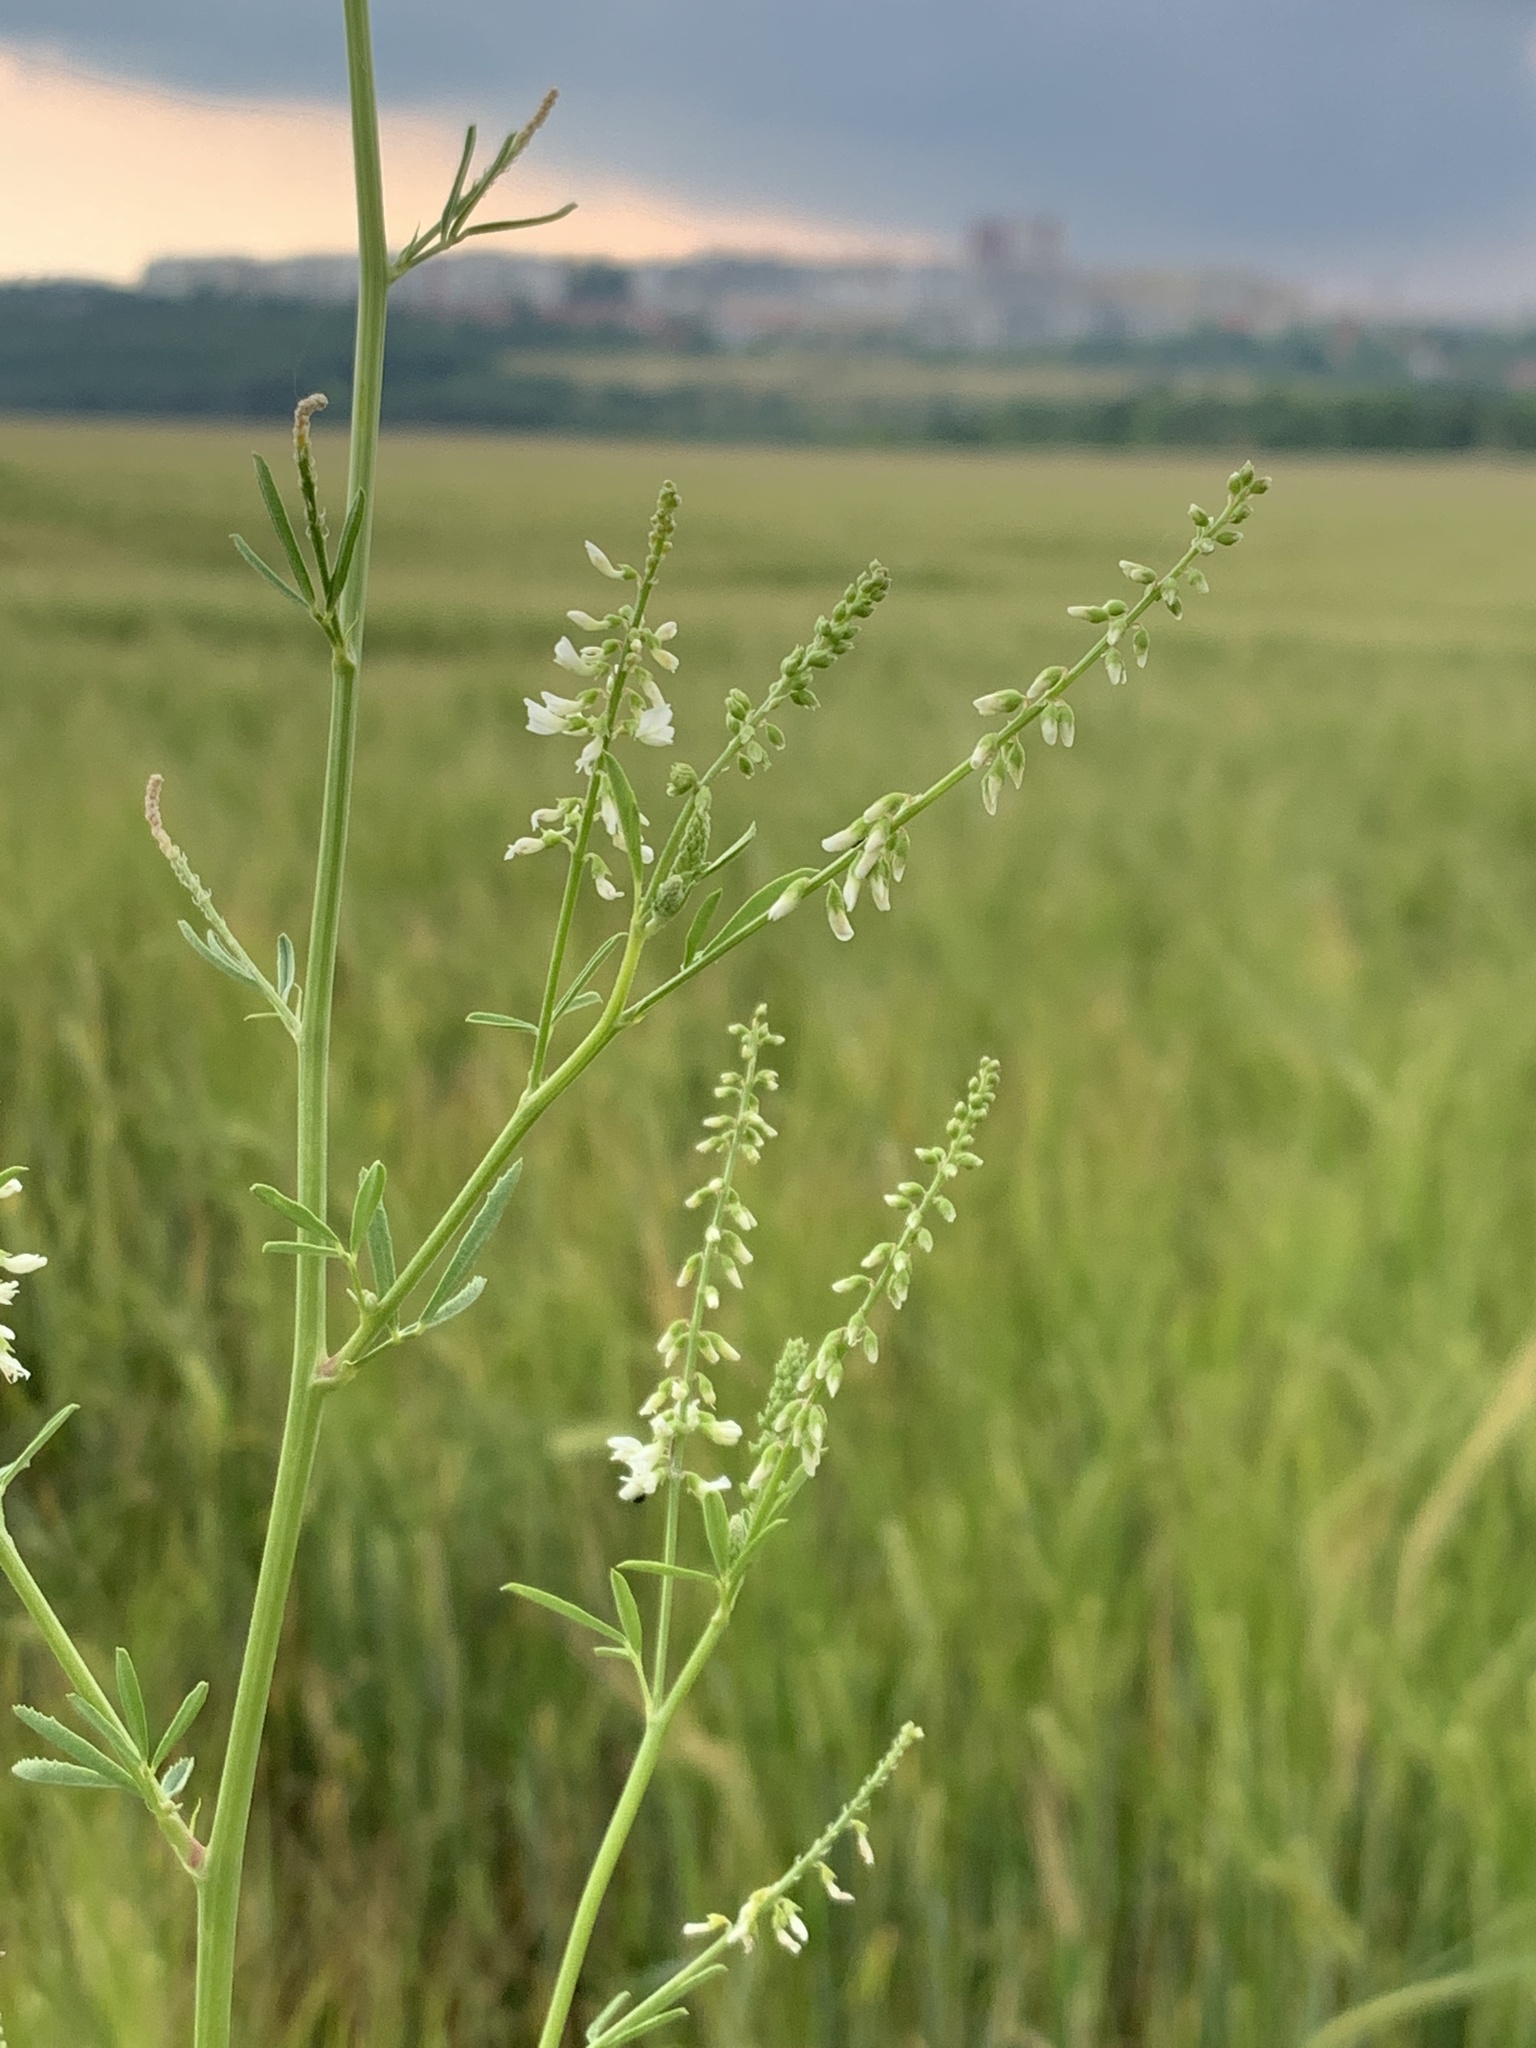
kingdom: Plantae
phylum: Tracheophyta
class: Magnoliopsida
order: Fabales
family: Fabaceae
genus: Melilotus
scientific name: Melilotus albus
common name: White melilot
